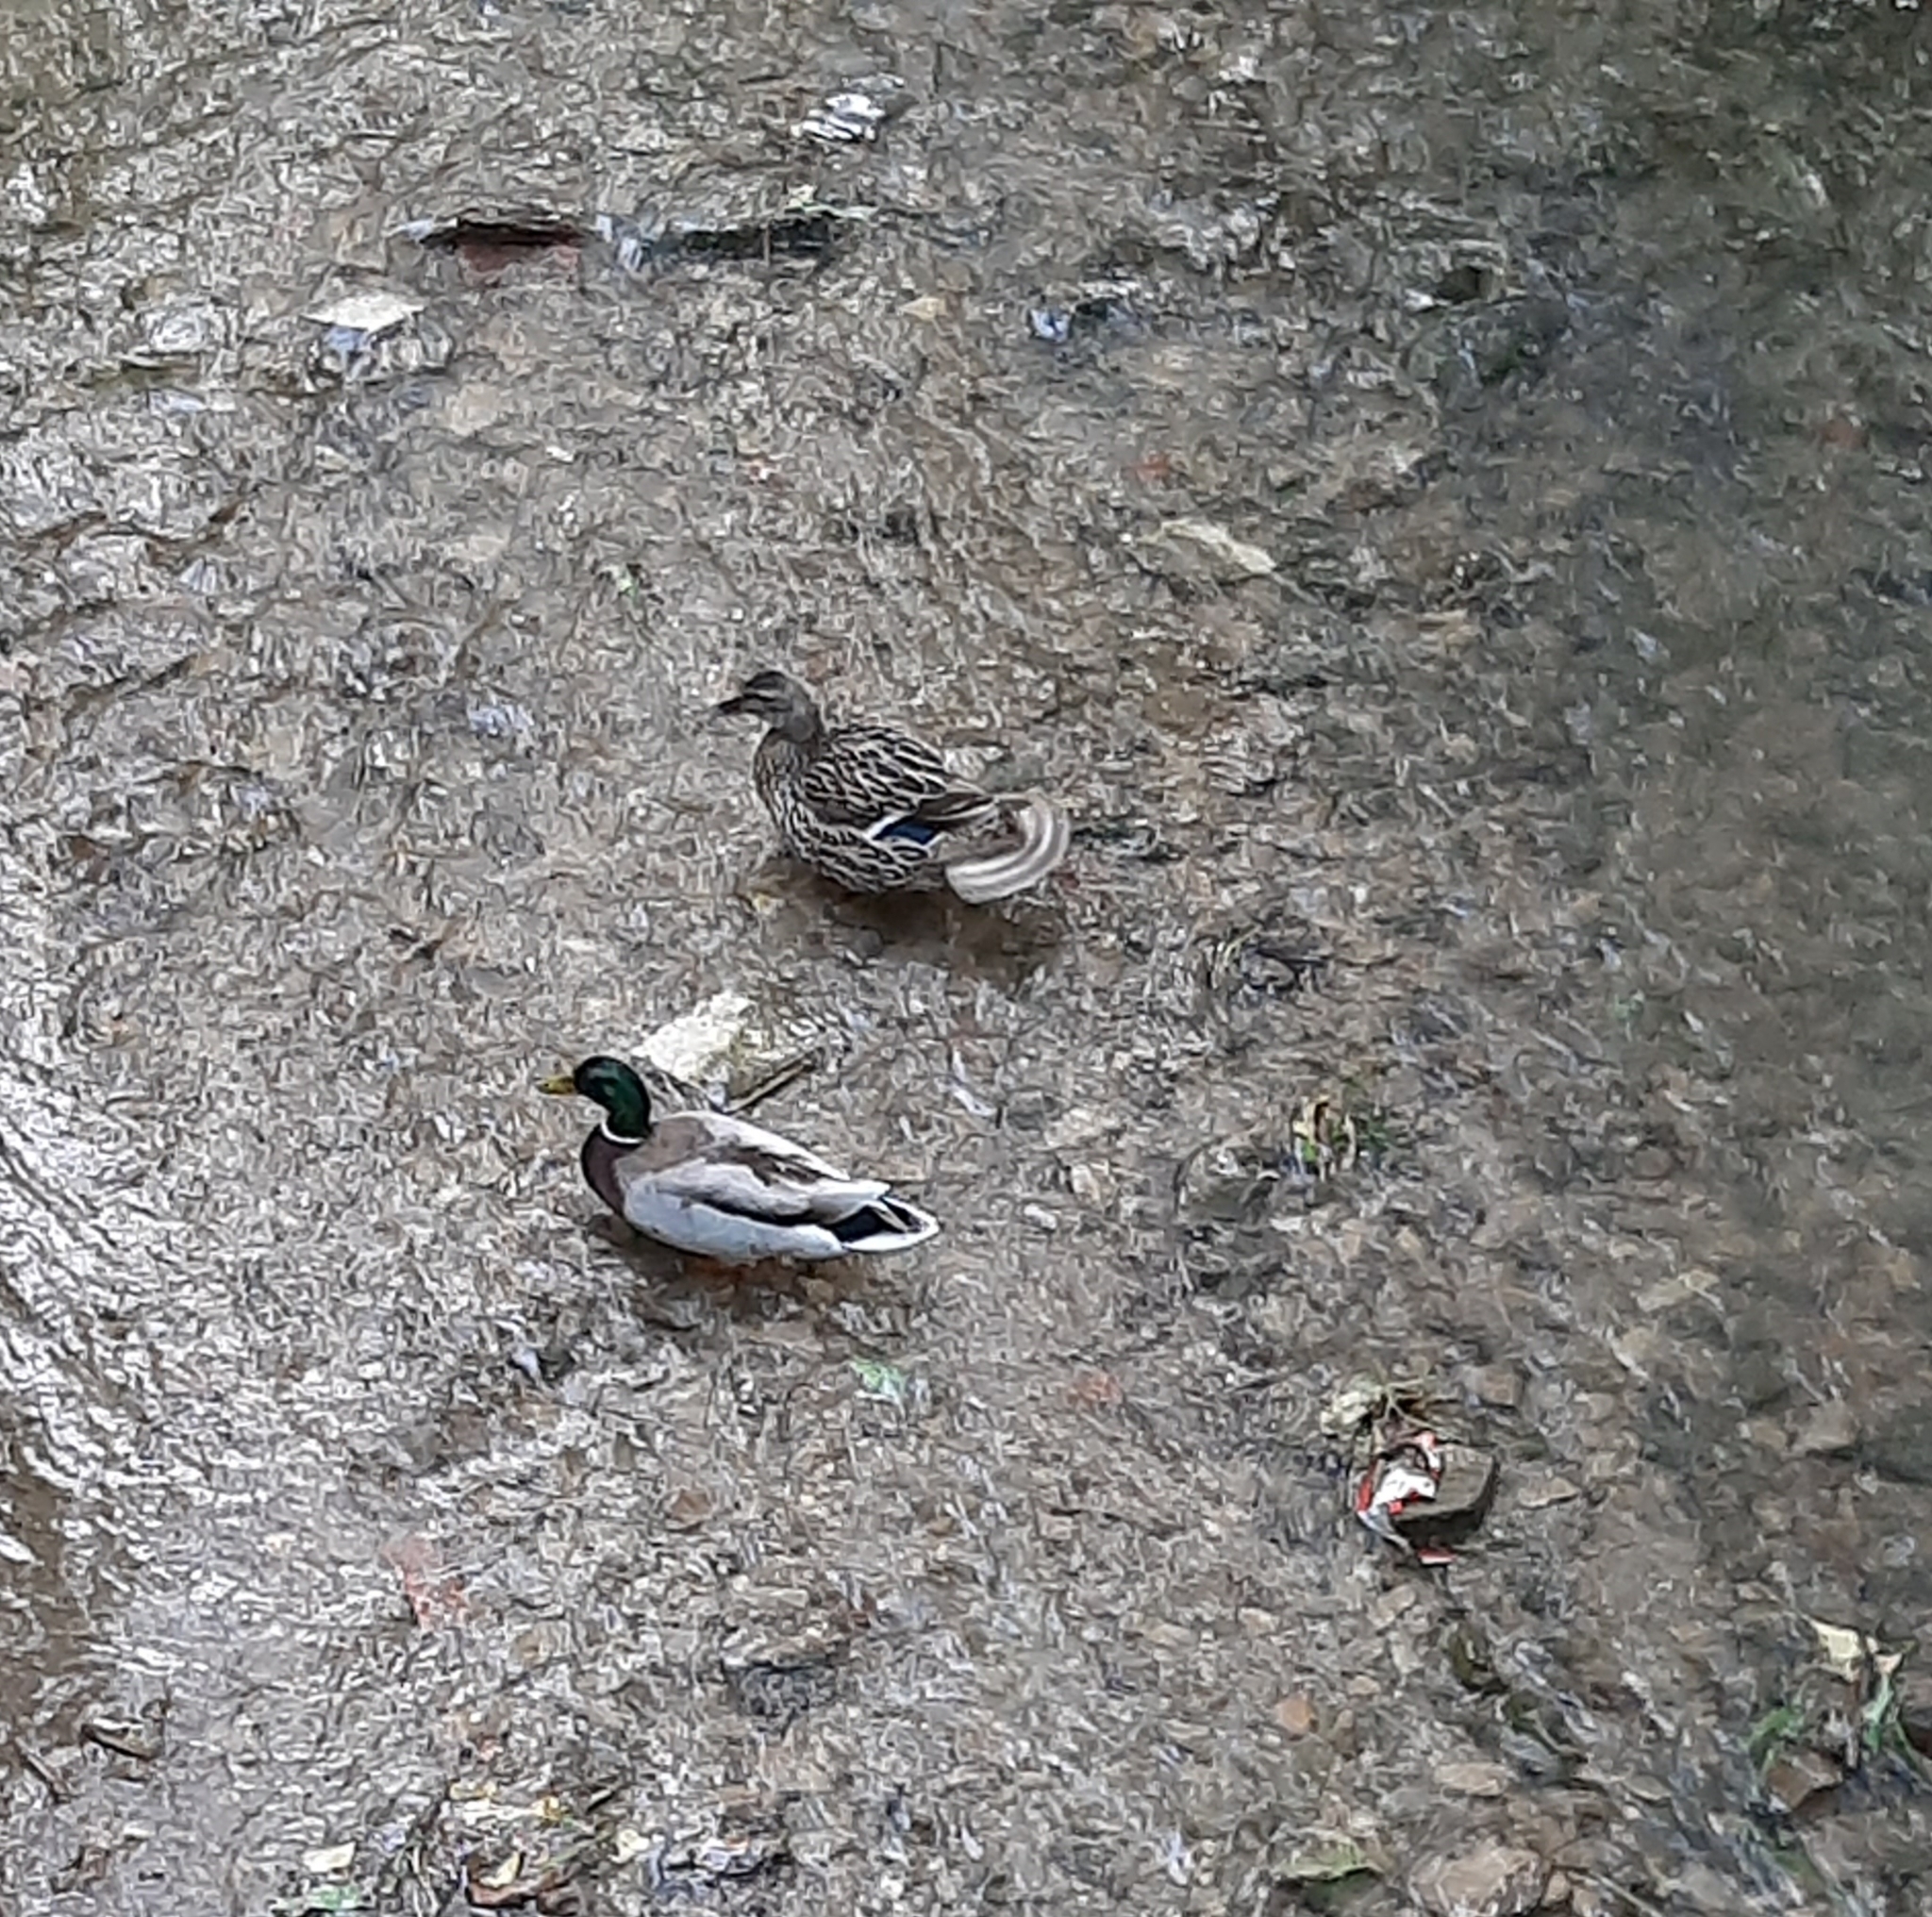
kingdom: Animalia
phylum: Chordata
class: Aves
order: Anseriformes
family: Anatidae
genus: Anas
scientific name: Anas platyrhynchos
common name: Mallard
